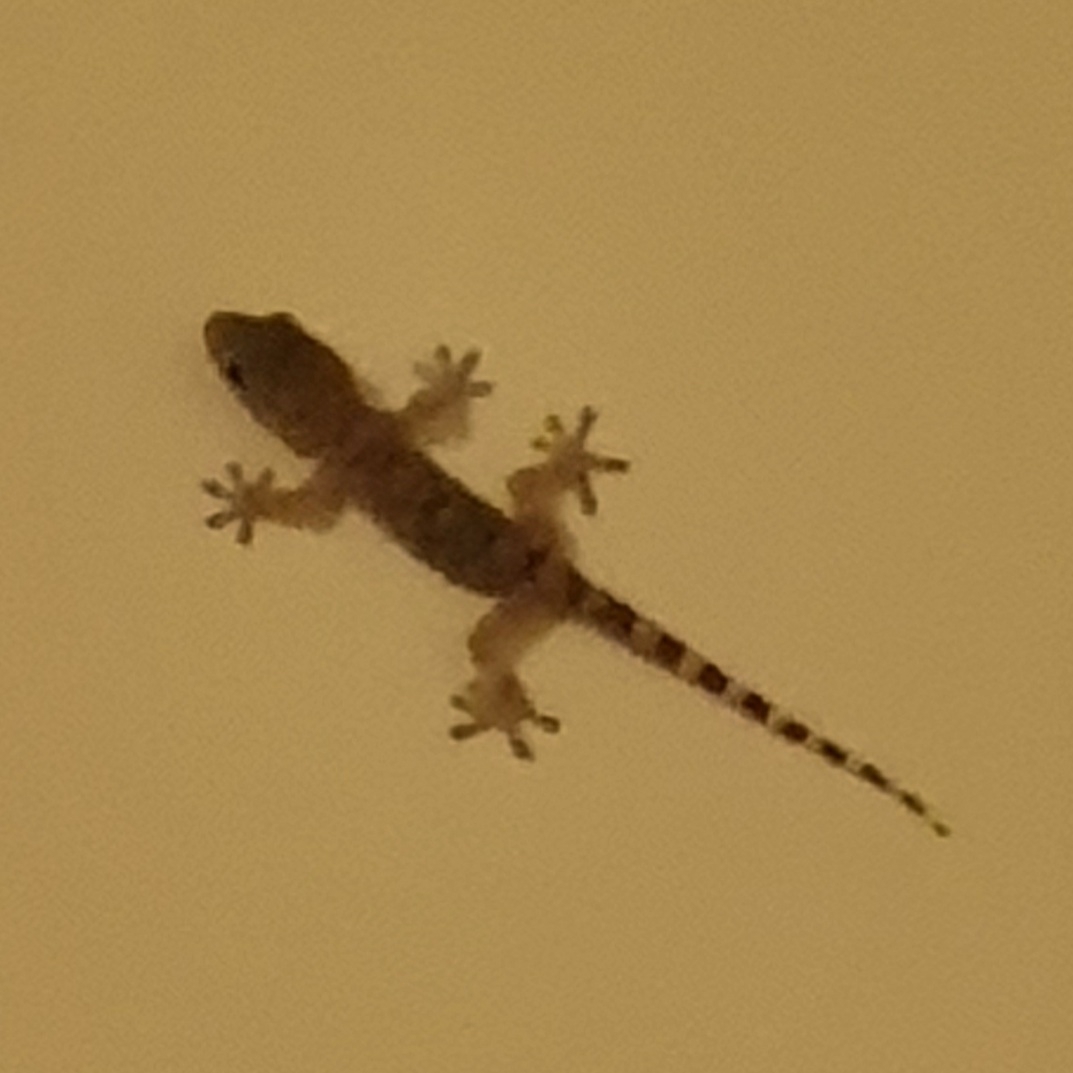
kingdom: Animalia
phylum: Chordata
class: Squamata
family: Phyllodactylidae
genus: Tarentola
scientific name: Tarentola mauritanica
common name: Moorish gecko
